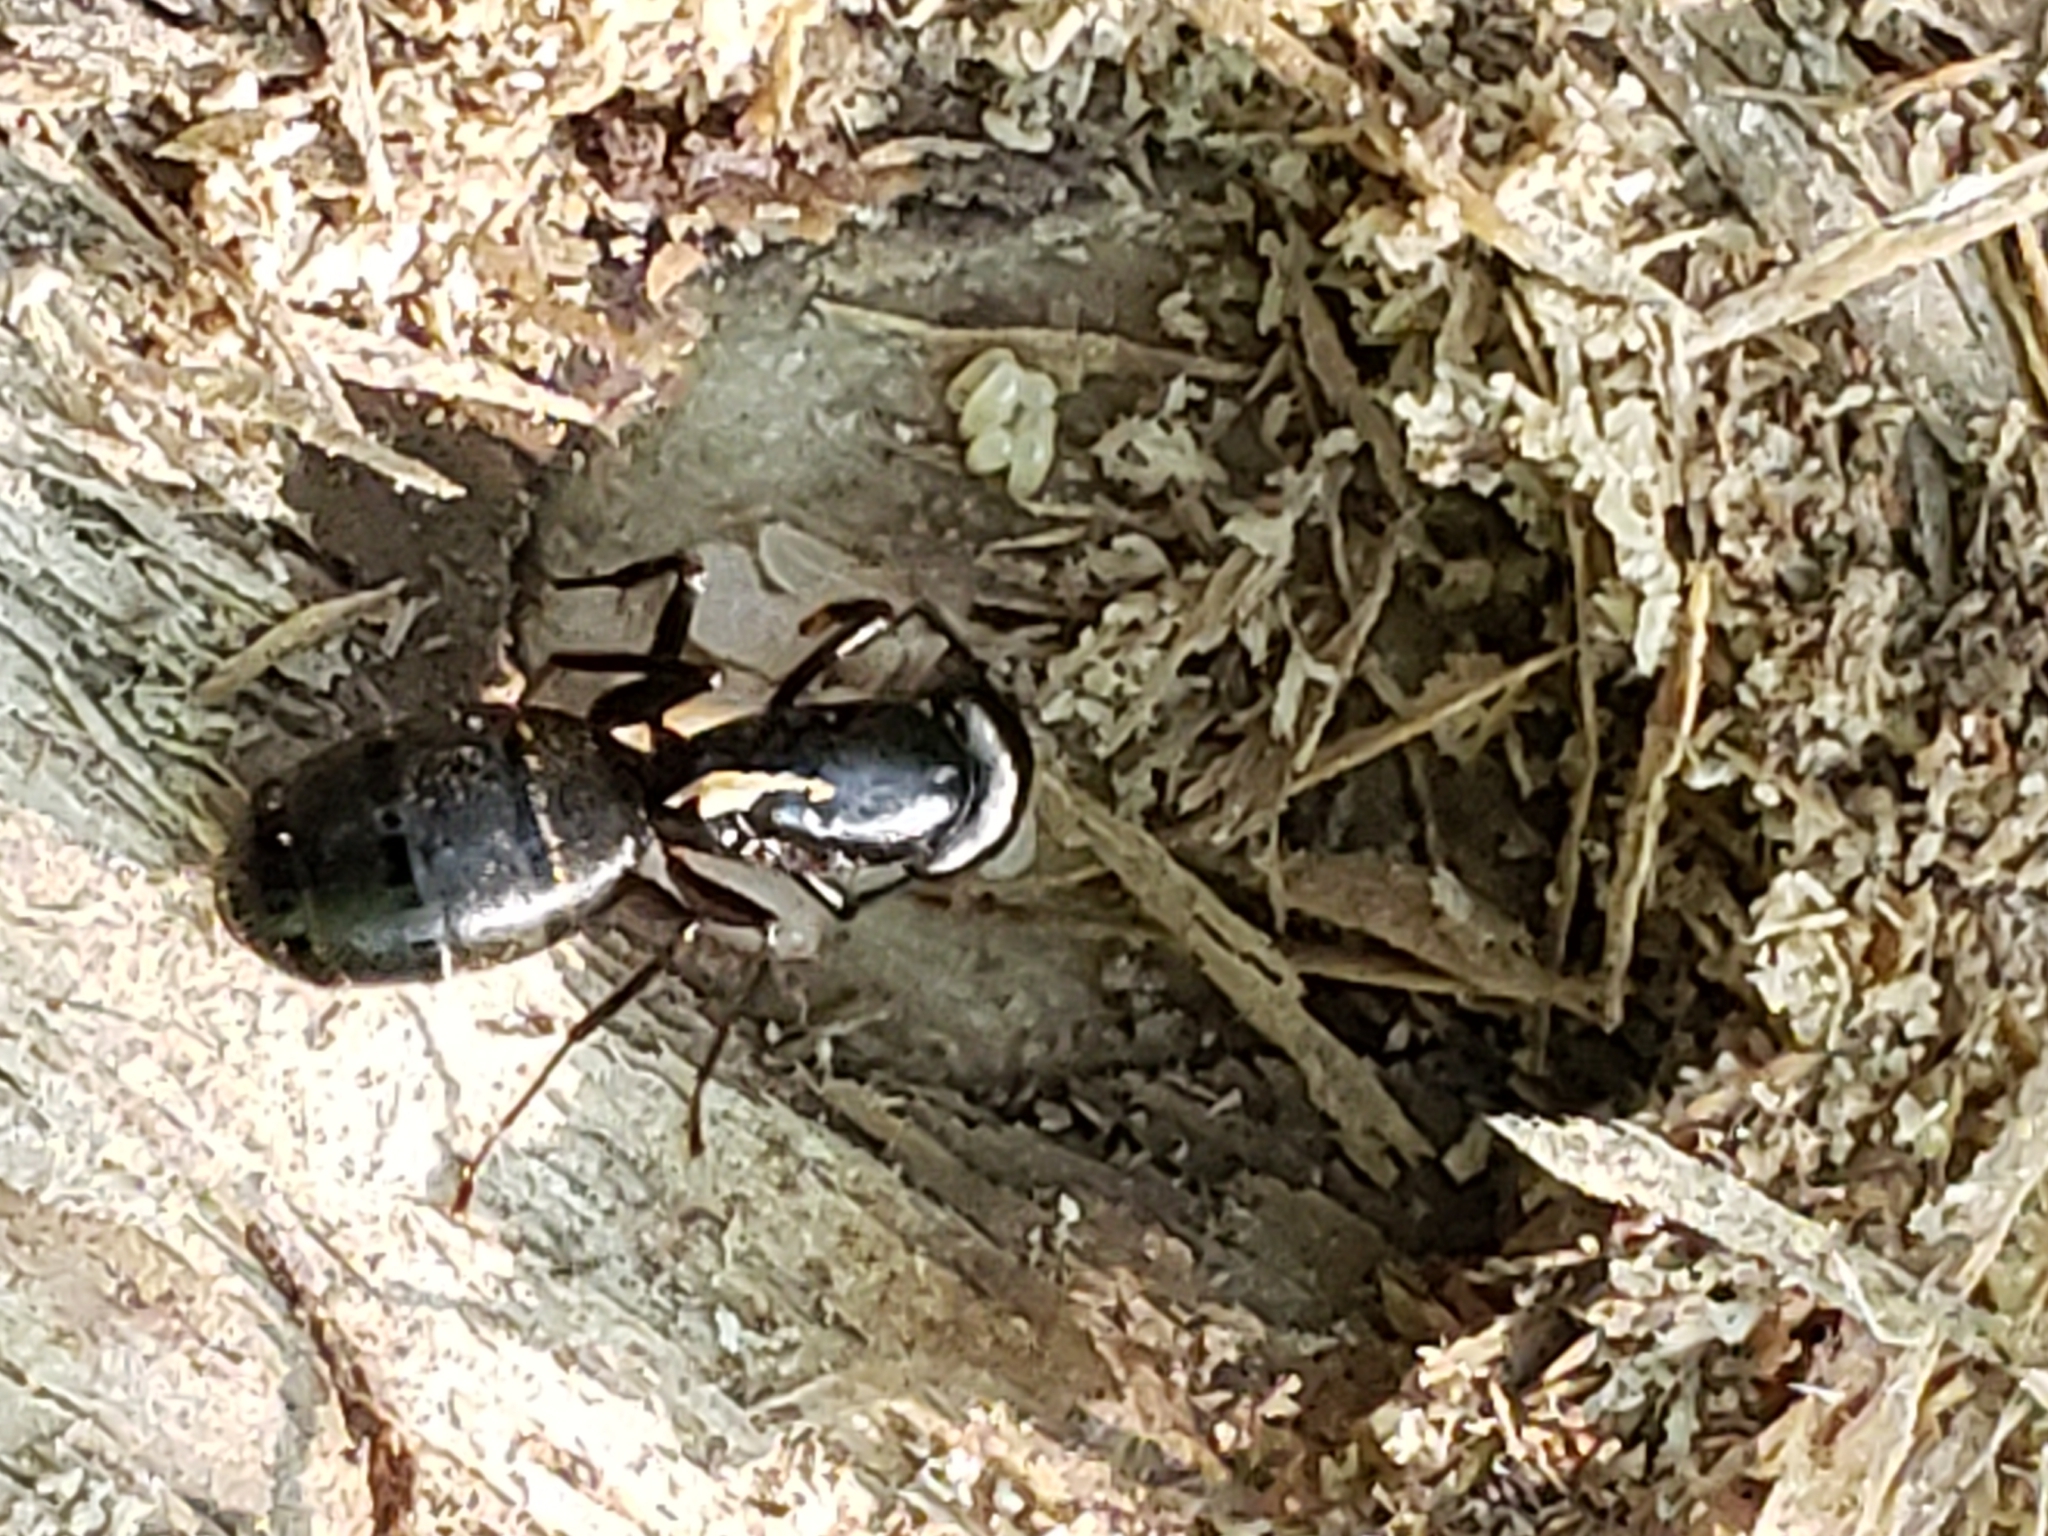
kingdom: Animalia
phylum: Arthropoda
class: Insecta
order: Hymenoptera
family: Formicidae
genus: Camponotus
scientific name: Camponotus pennsylvanicus
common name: Black carpenter ant
